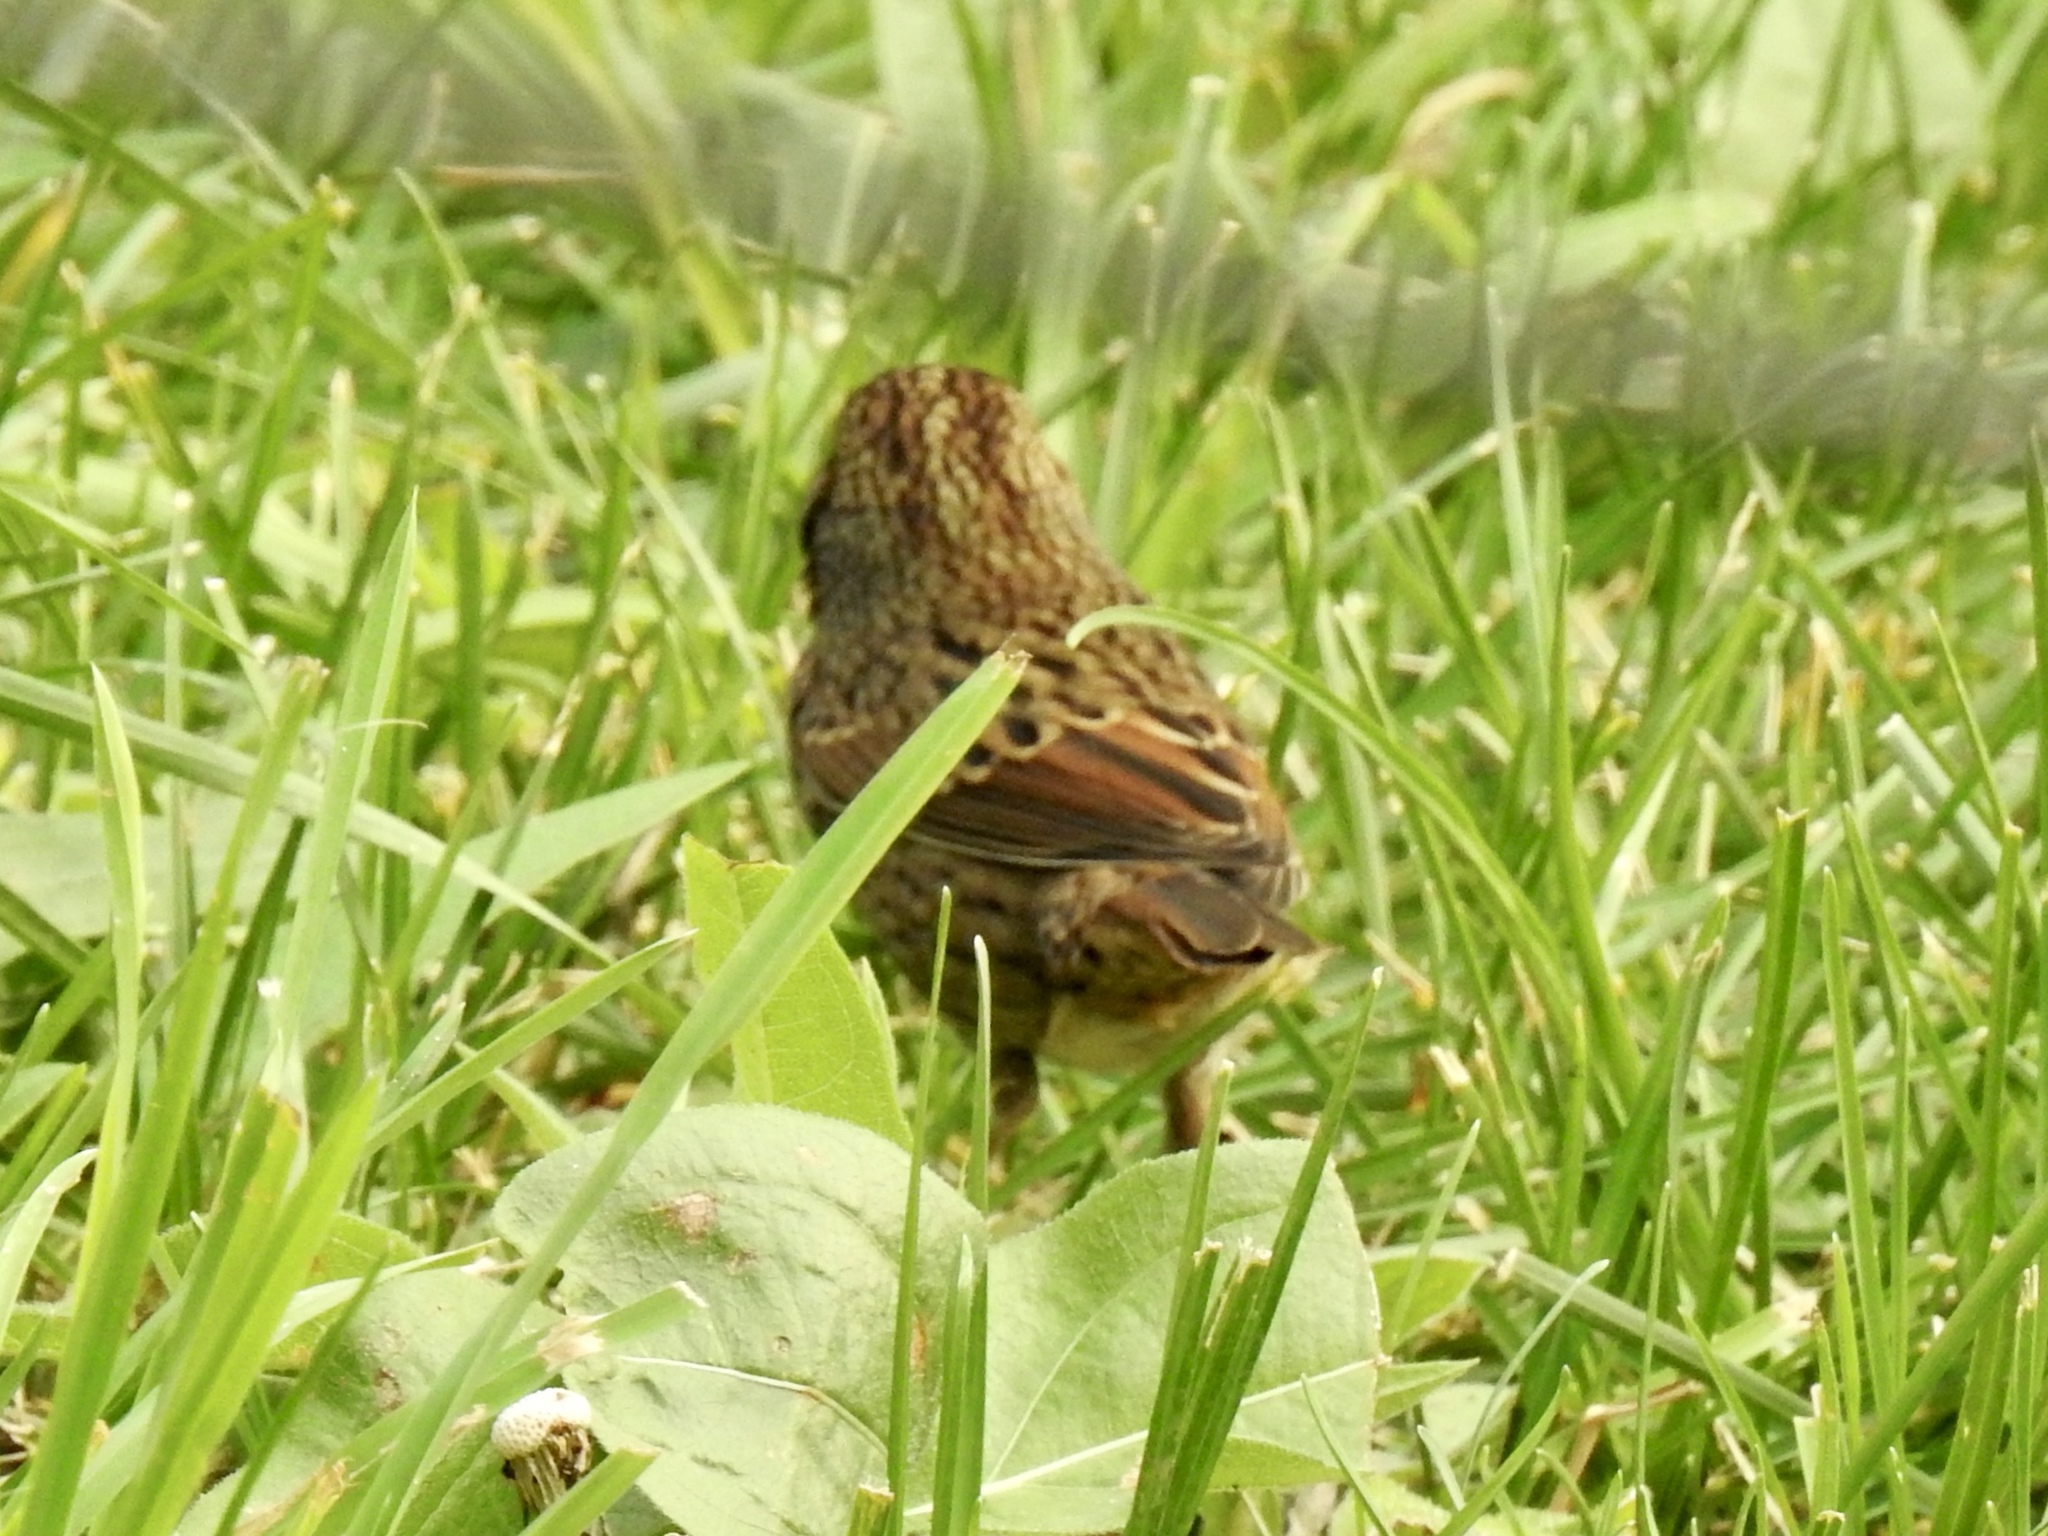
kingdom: Animalia
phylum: Chordata
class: Aves
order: Passeriformes
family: Passerellidae
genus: Melospiza
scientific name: Melospiza lincolnii
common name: Lincoln's sparrow
